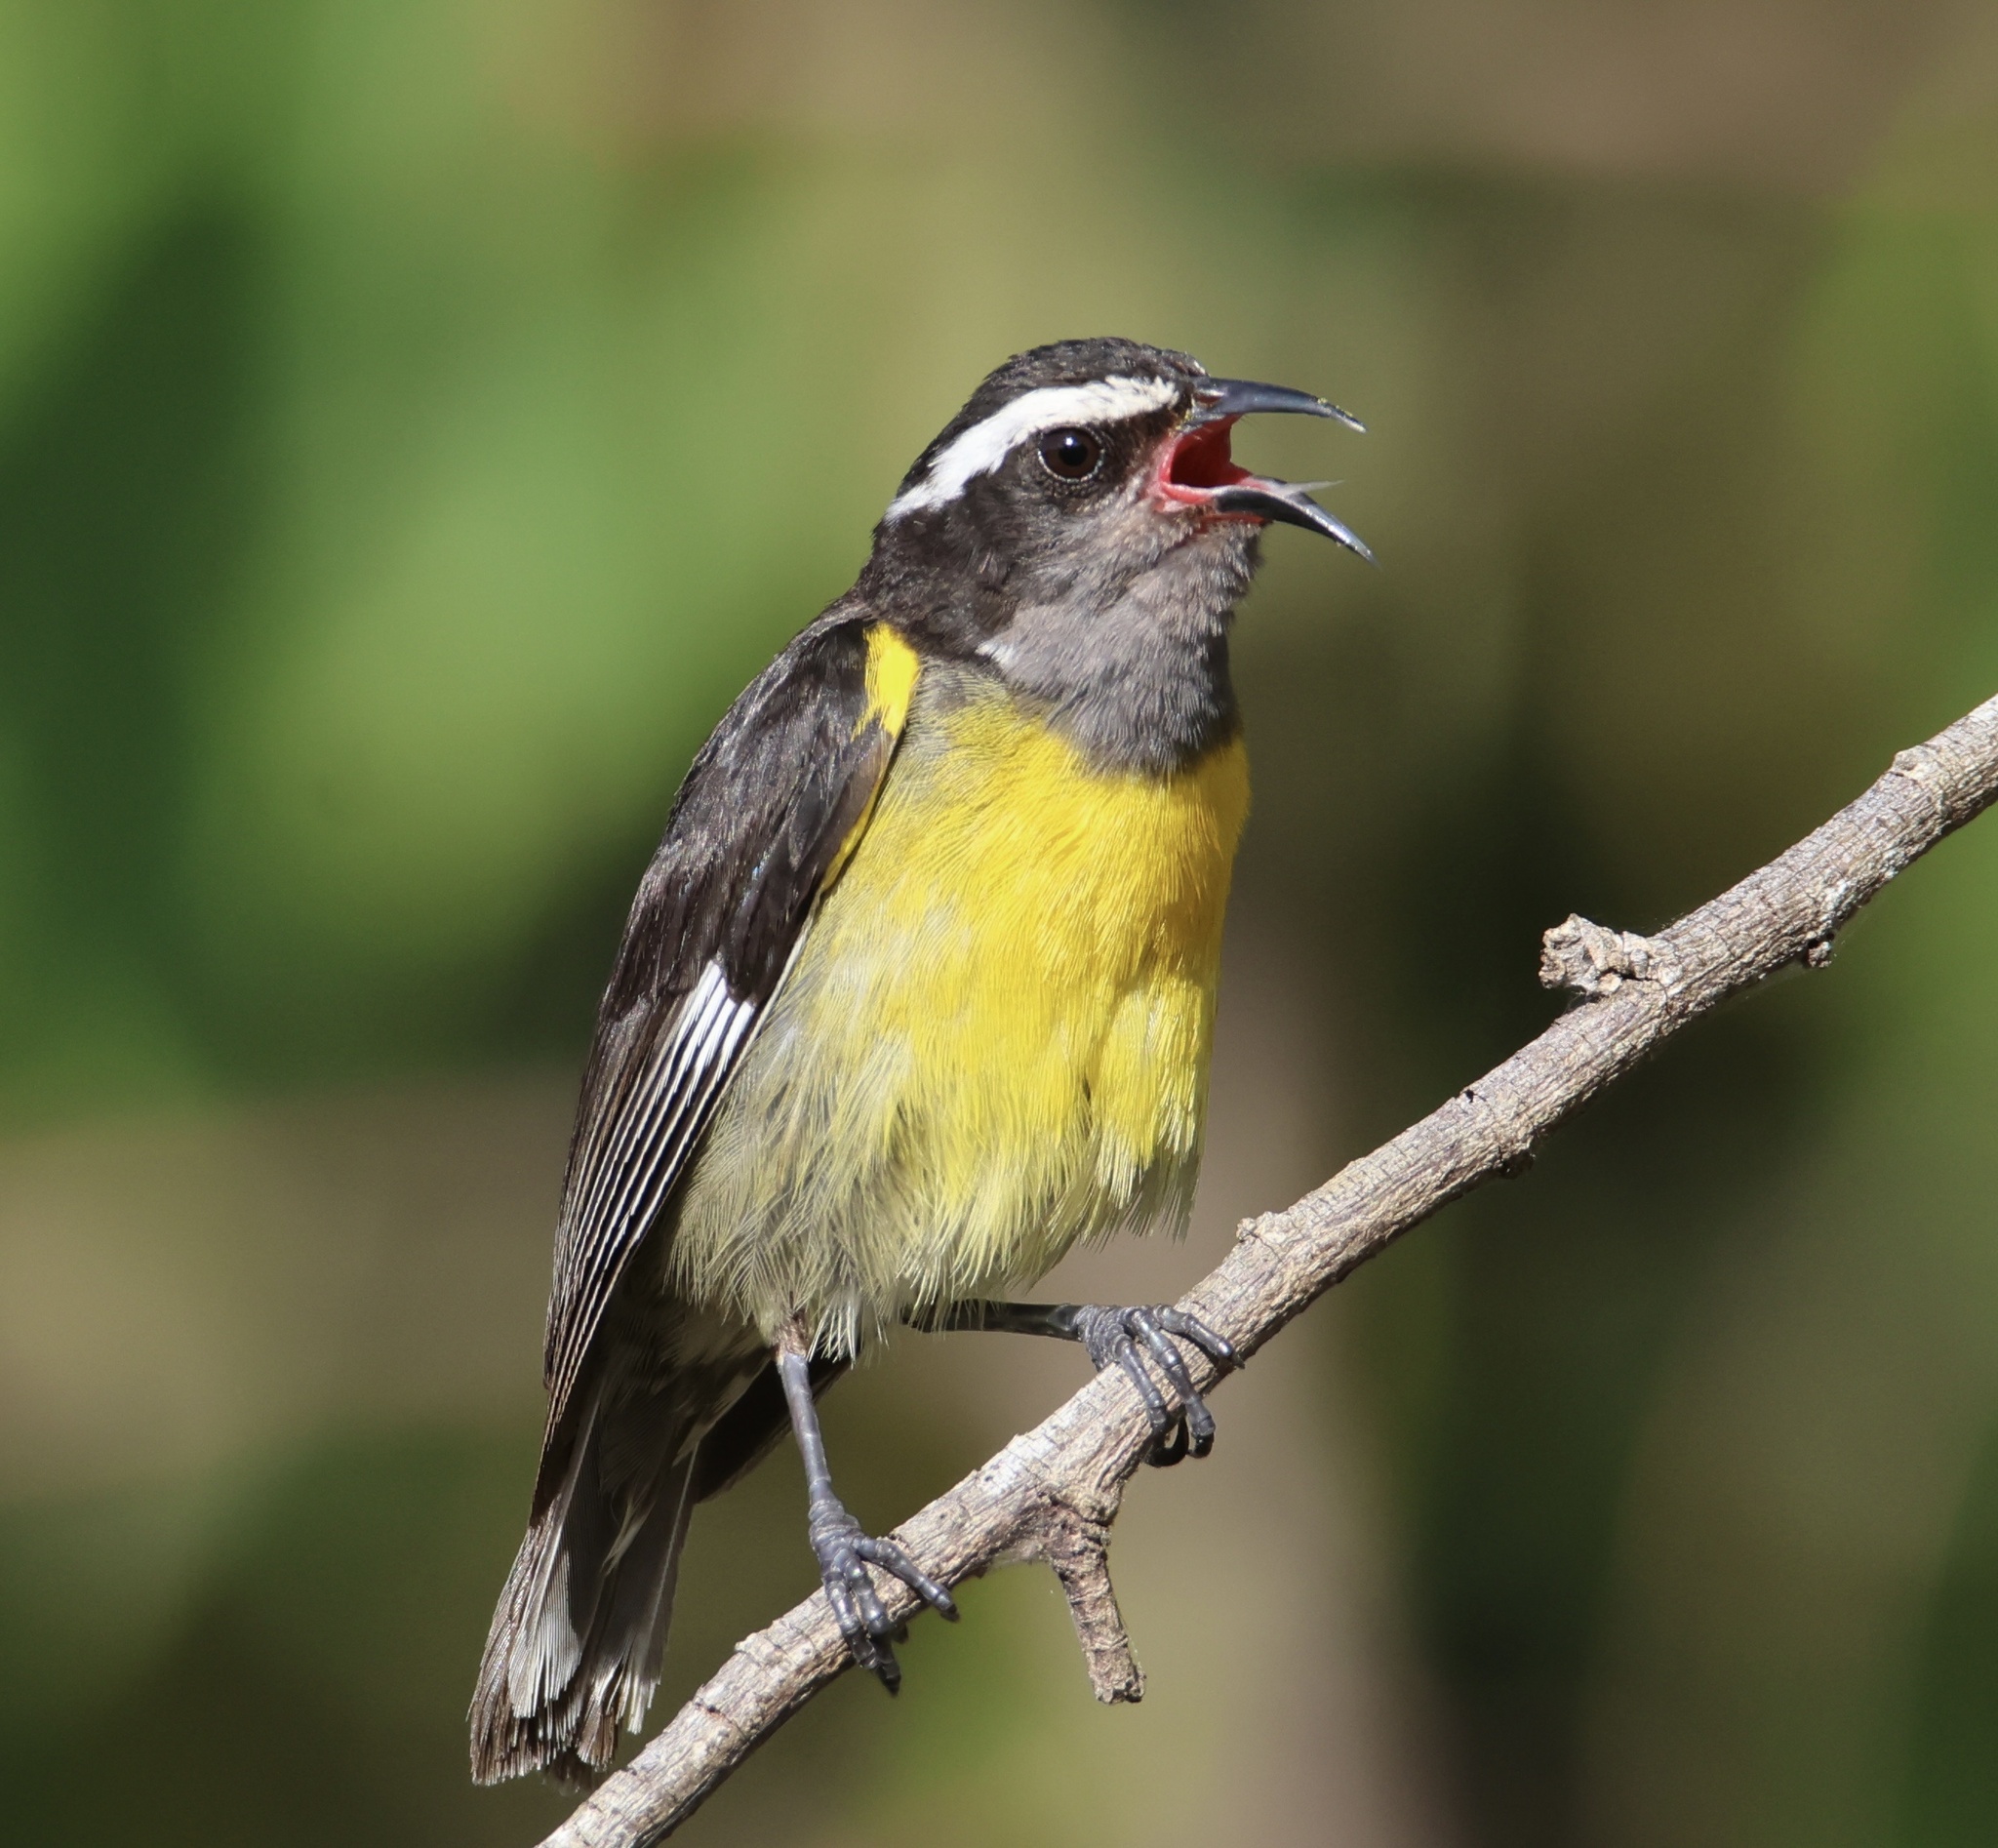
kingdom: Animalia
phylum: Chordata
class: Aves
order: Passeriformes
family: Thraupidae
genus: Coereba
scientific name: Coereba flaveola
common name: Bananaquit
